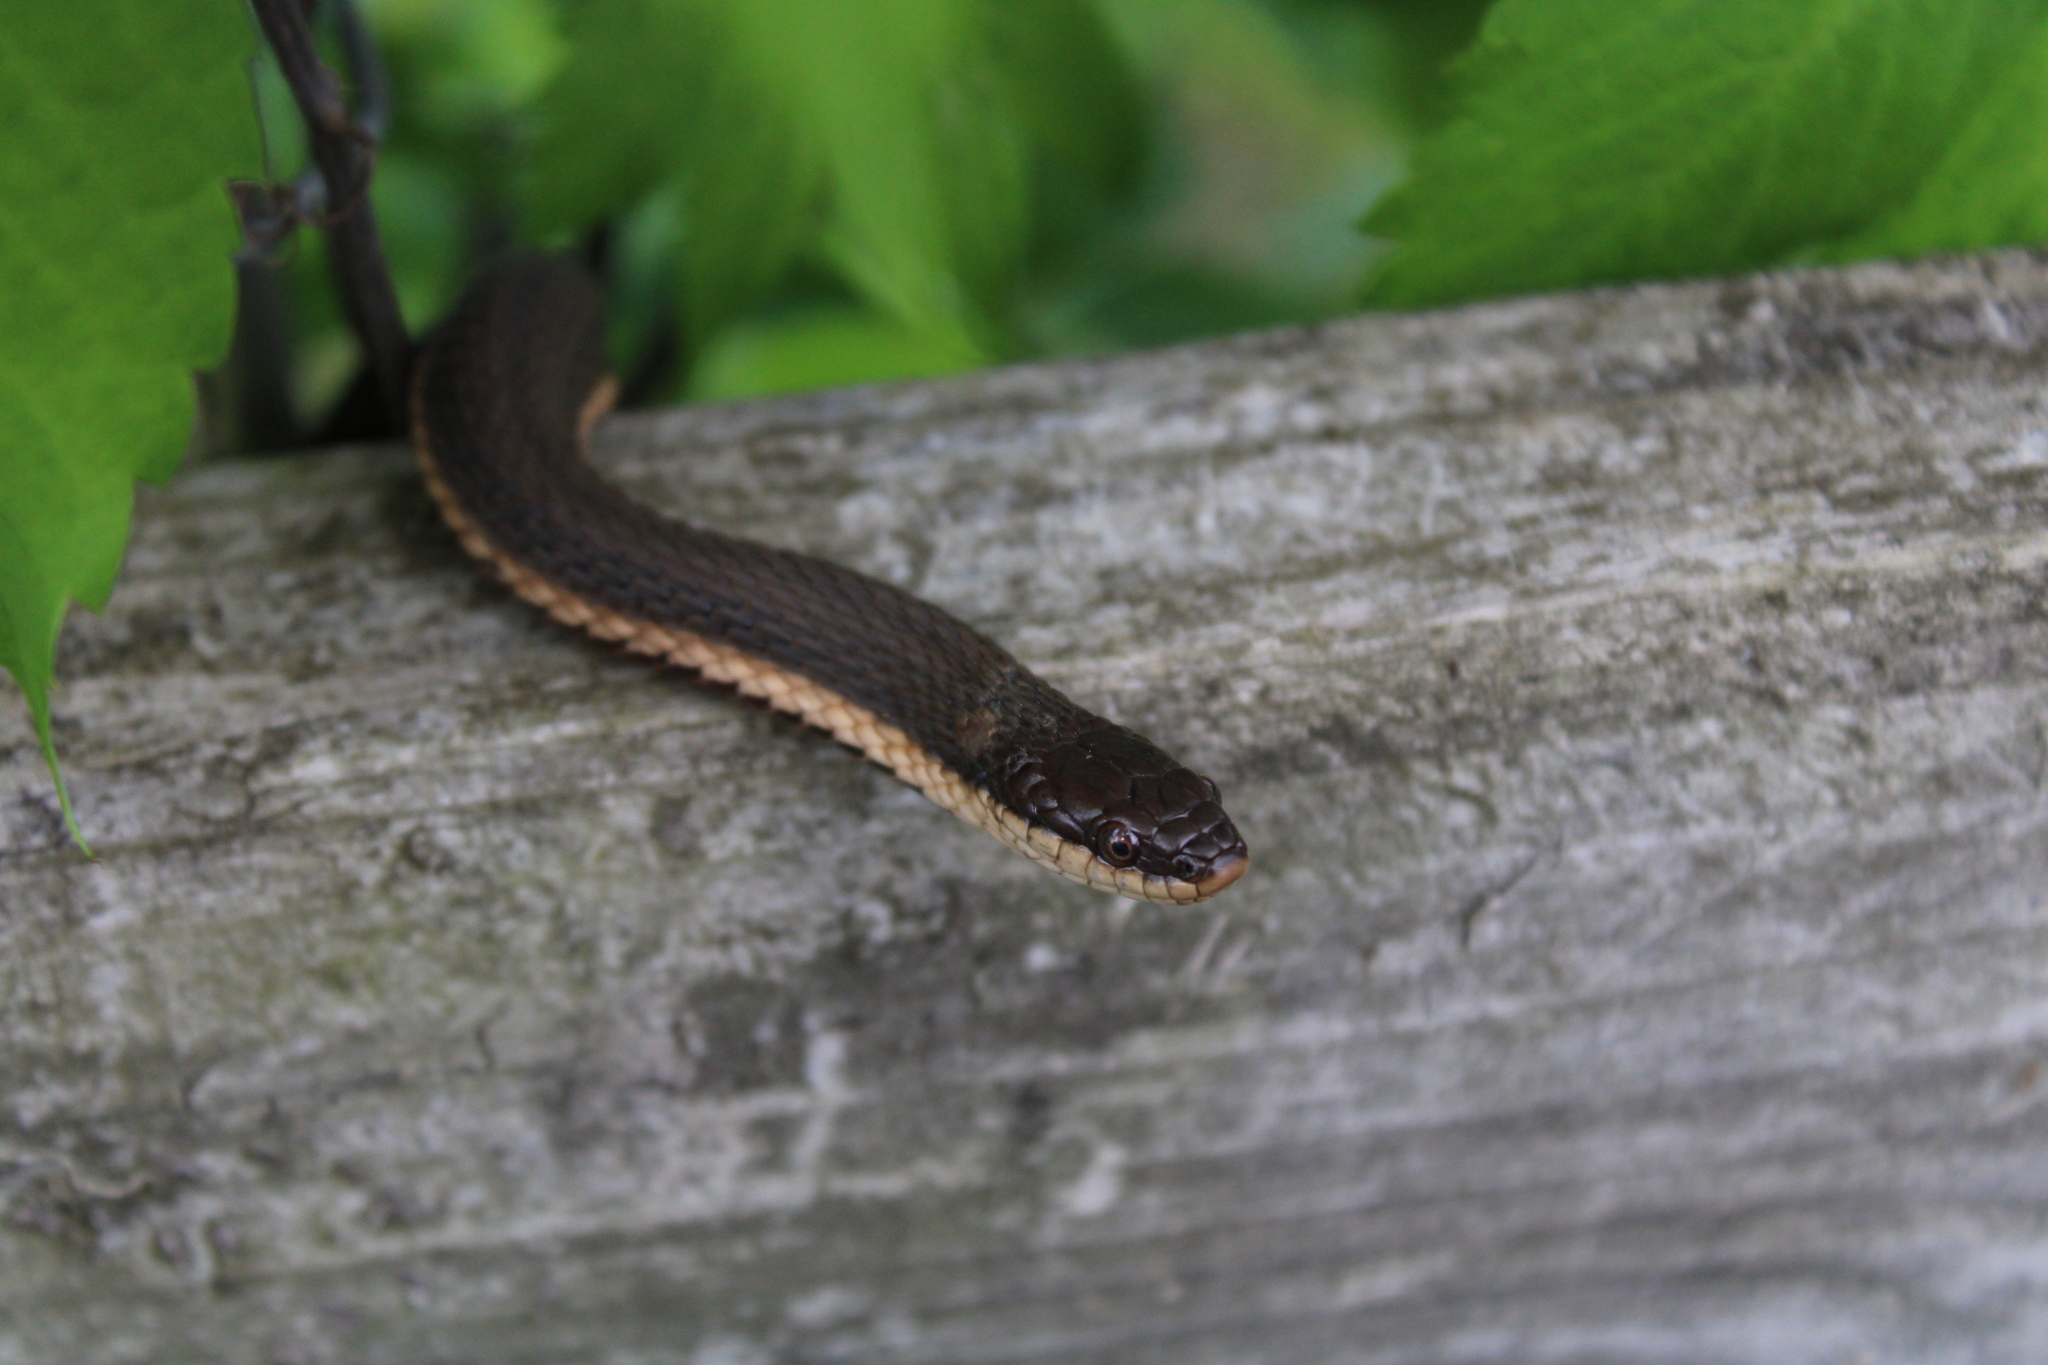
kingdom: Animalia
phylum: Chordata
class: Squamata
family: Colubridae
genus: Regina
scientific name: Regina septemvittata
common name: Queen snake
